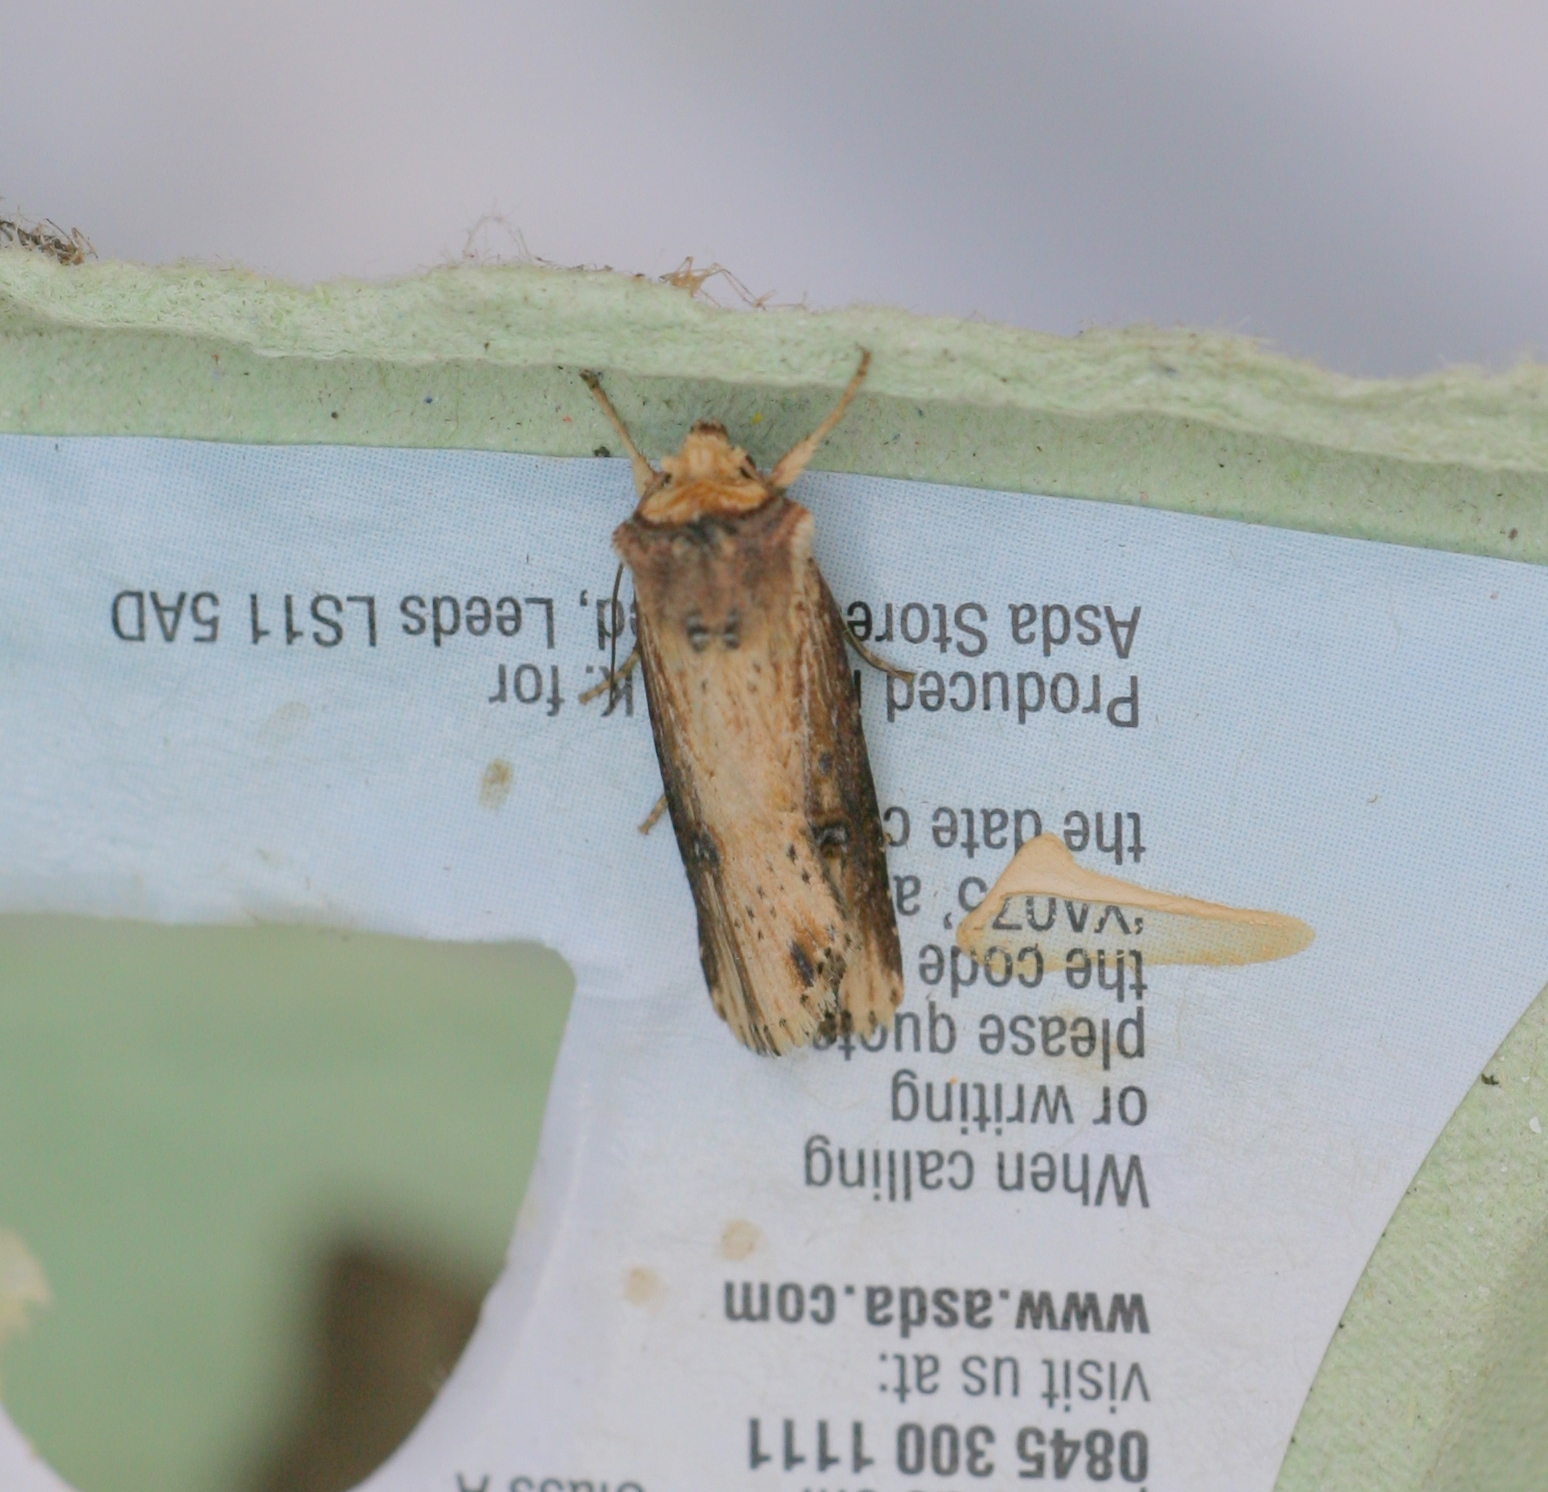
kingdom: Animalia
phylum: Arthropoda
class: Insecta
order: Lepidoptera
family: Noctuidae
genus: Axylia
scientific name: Axylia putris
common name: Flame
